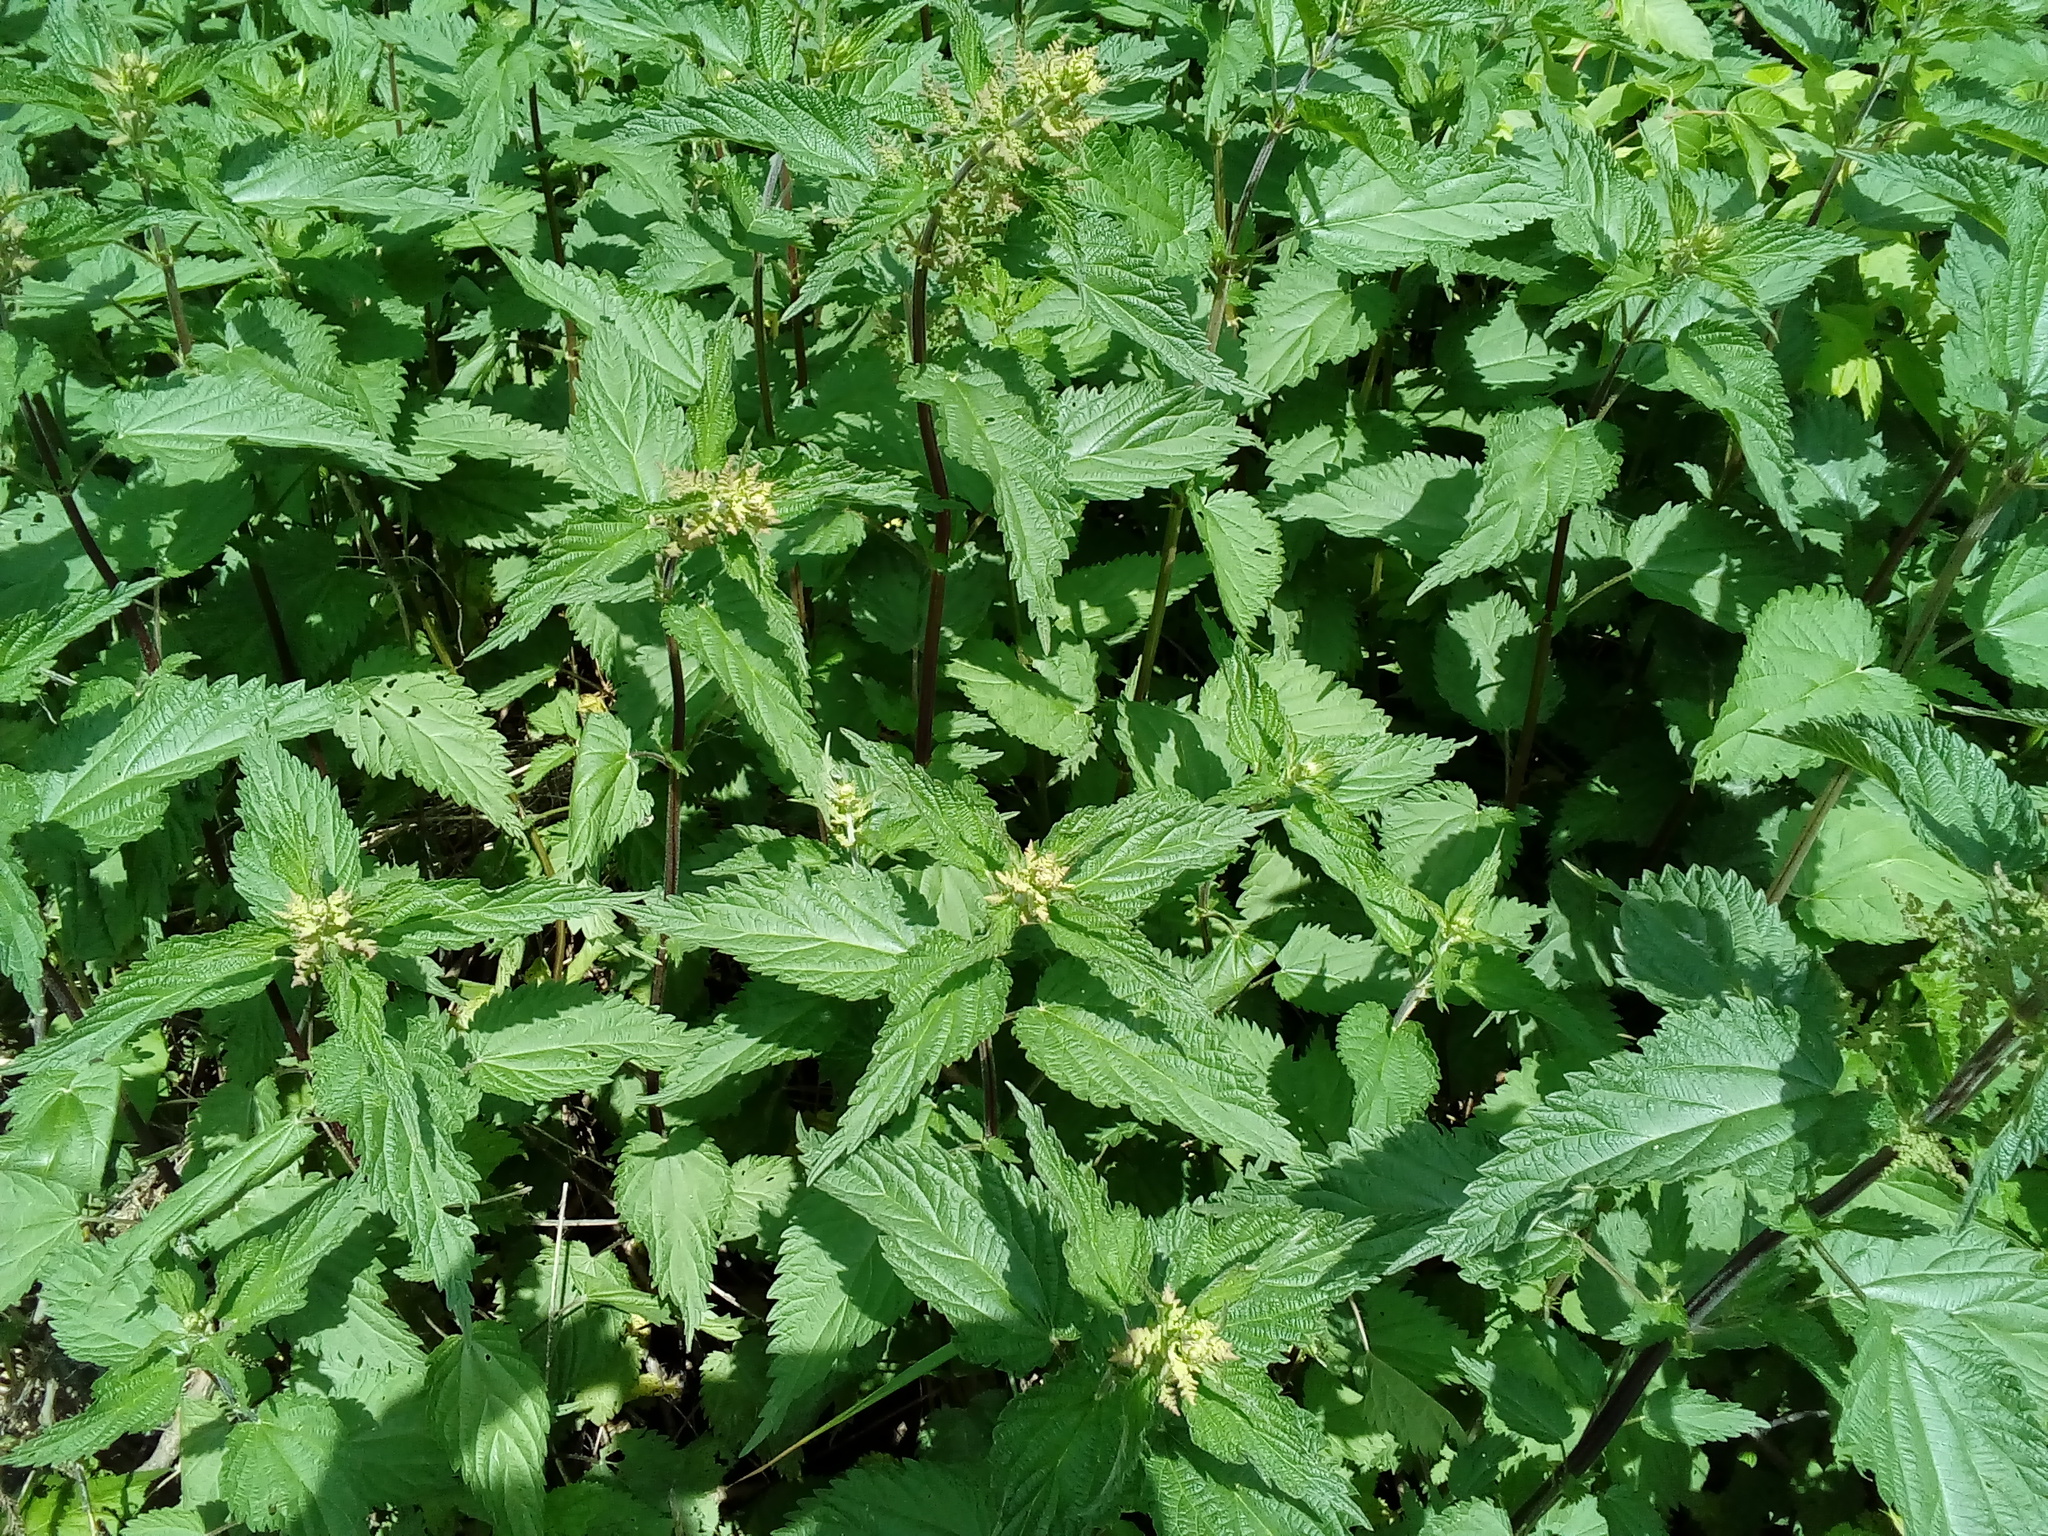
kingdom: Plantae
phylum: Tracheophyta
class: Magnoliopsida
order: Rosales
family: Urticaceae
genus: Urtica
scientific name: Urtica dioica
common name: Common nettle
